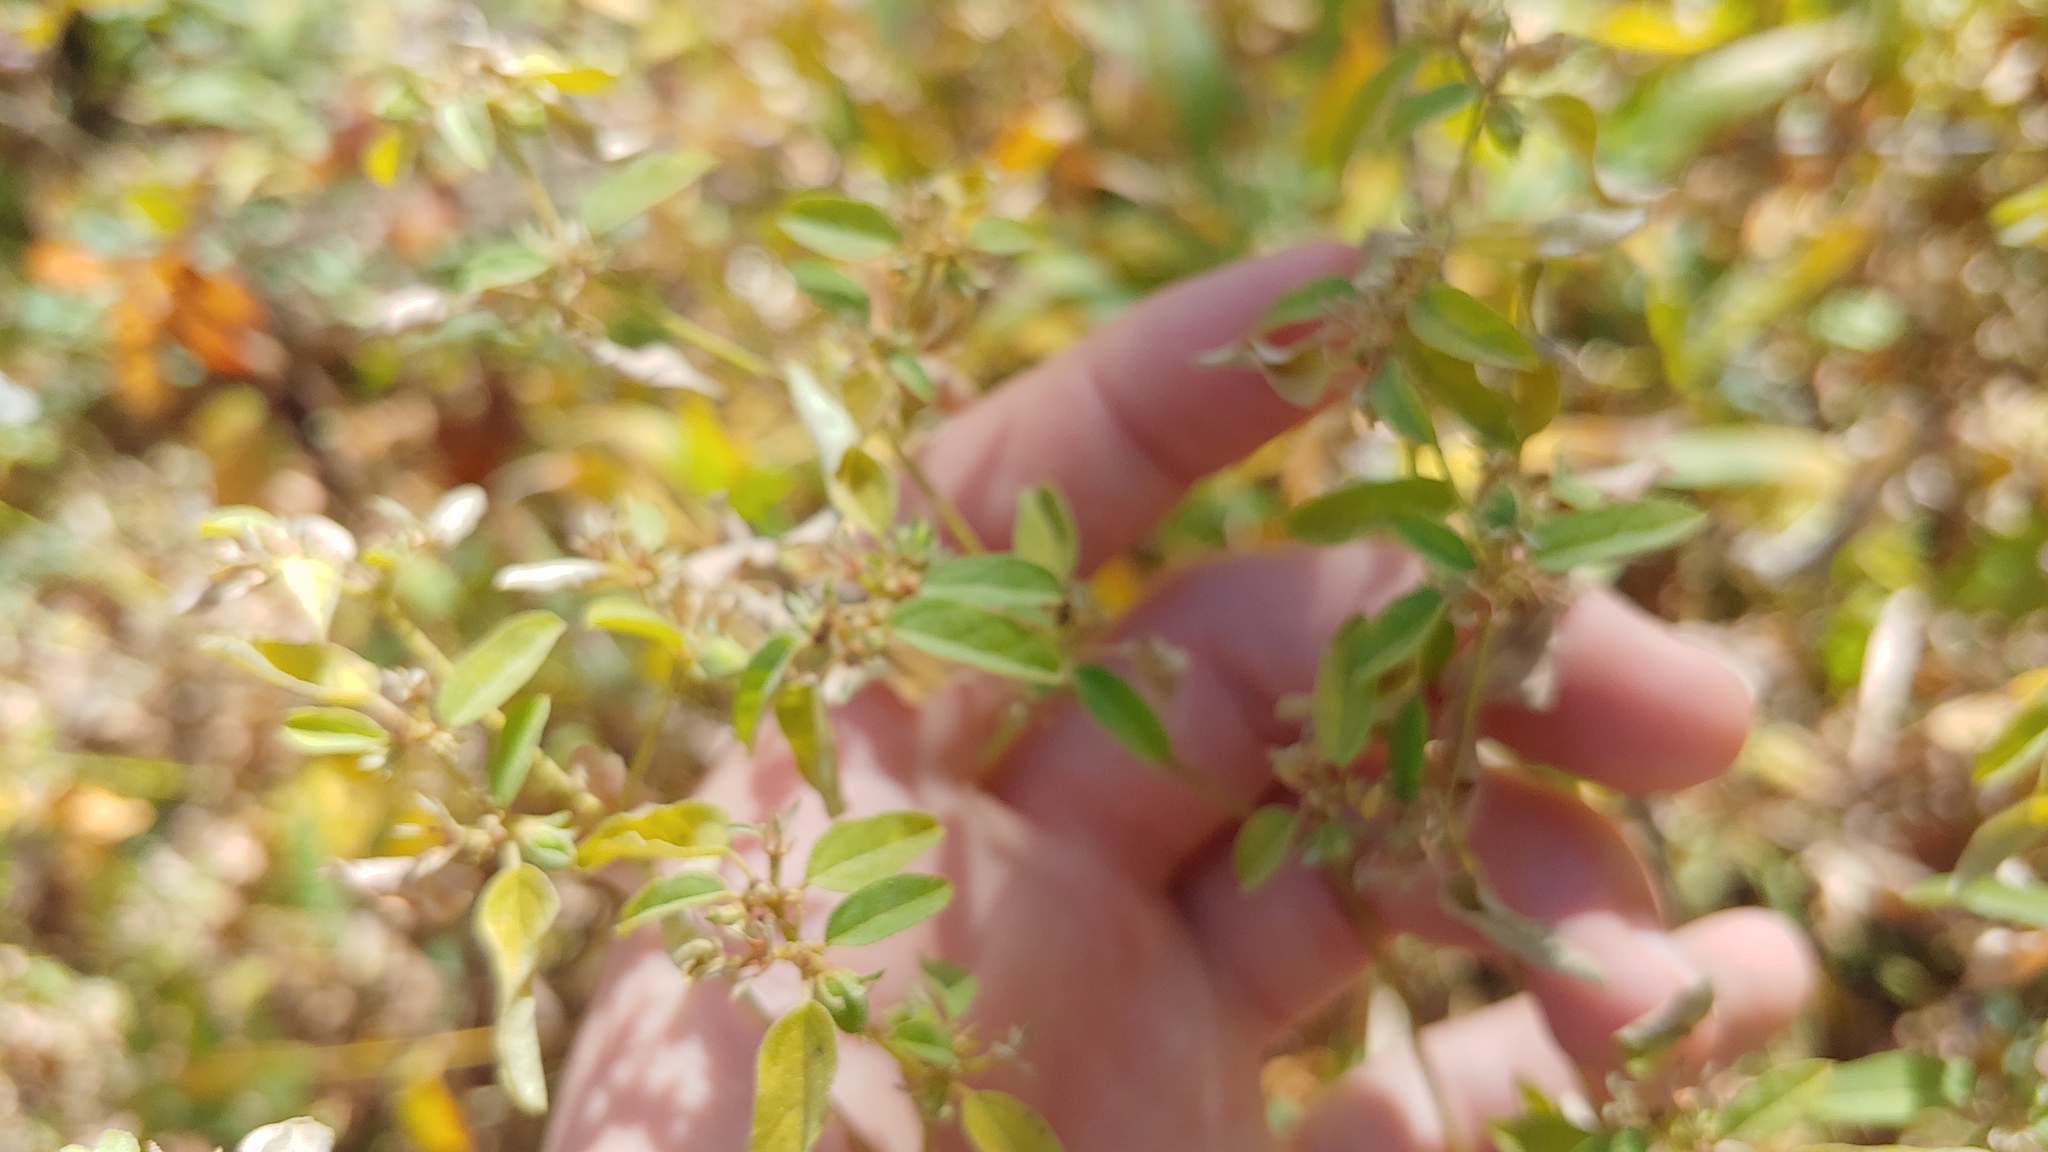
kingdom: Plantae
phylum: Tracheophyta
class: Magnoliopsida
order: Malpighiales
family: Euphorbiaceae
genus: Croton
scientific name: Croton monanthogynus
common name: One-seed croton
